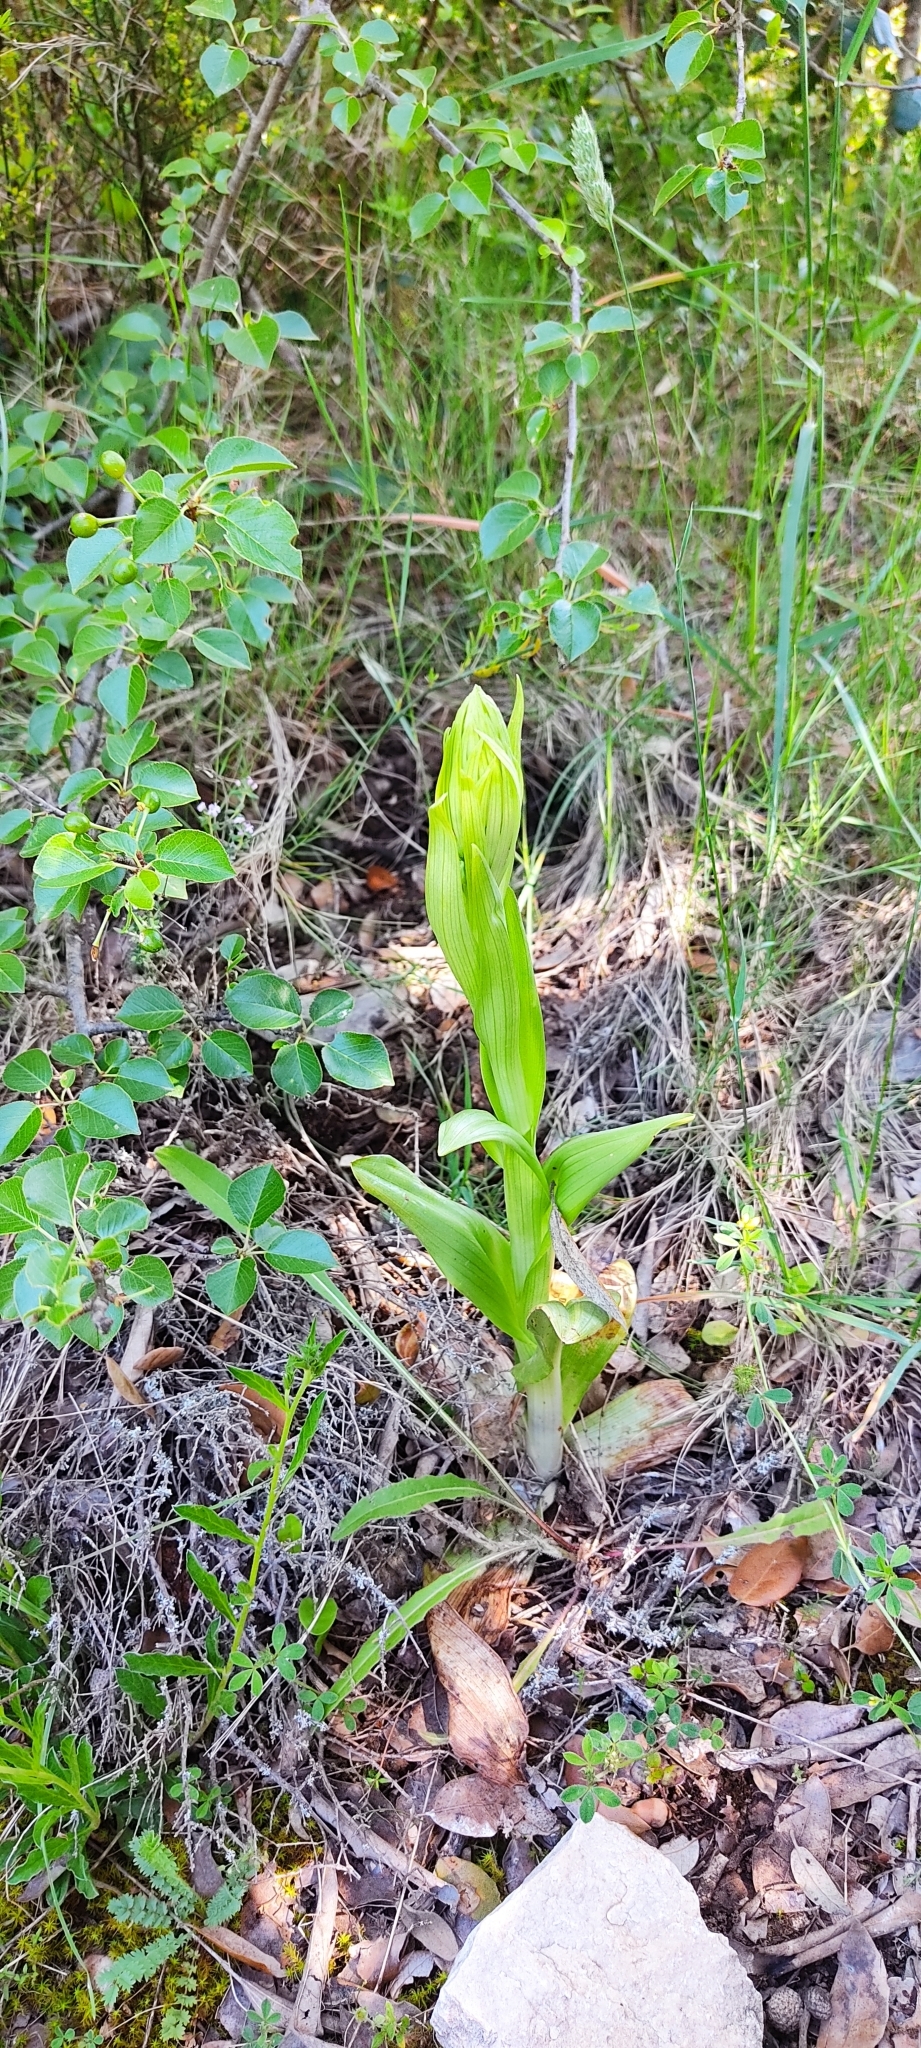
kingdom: Plantae
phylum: Tracheophyta
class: Liliopsida
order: Asparagales
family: Orchidaceae
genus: Himantoglossum
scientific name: Himantoglossum hircinum
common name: Lizard orchid
